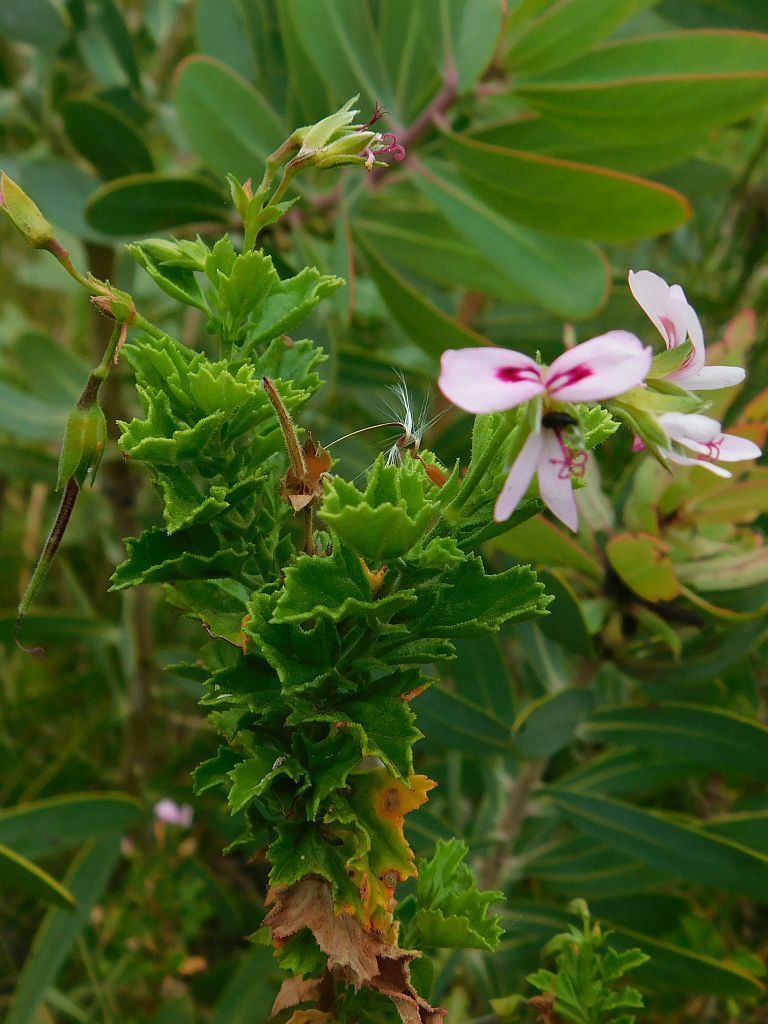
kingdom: Plantae
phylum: Tracheophyta
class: Magnoliopsida
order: Geraniales
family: Geraniaceae
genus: Pelargonium
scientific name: Pelargonium hermaniifolium
